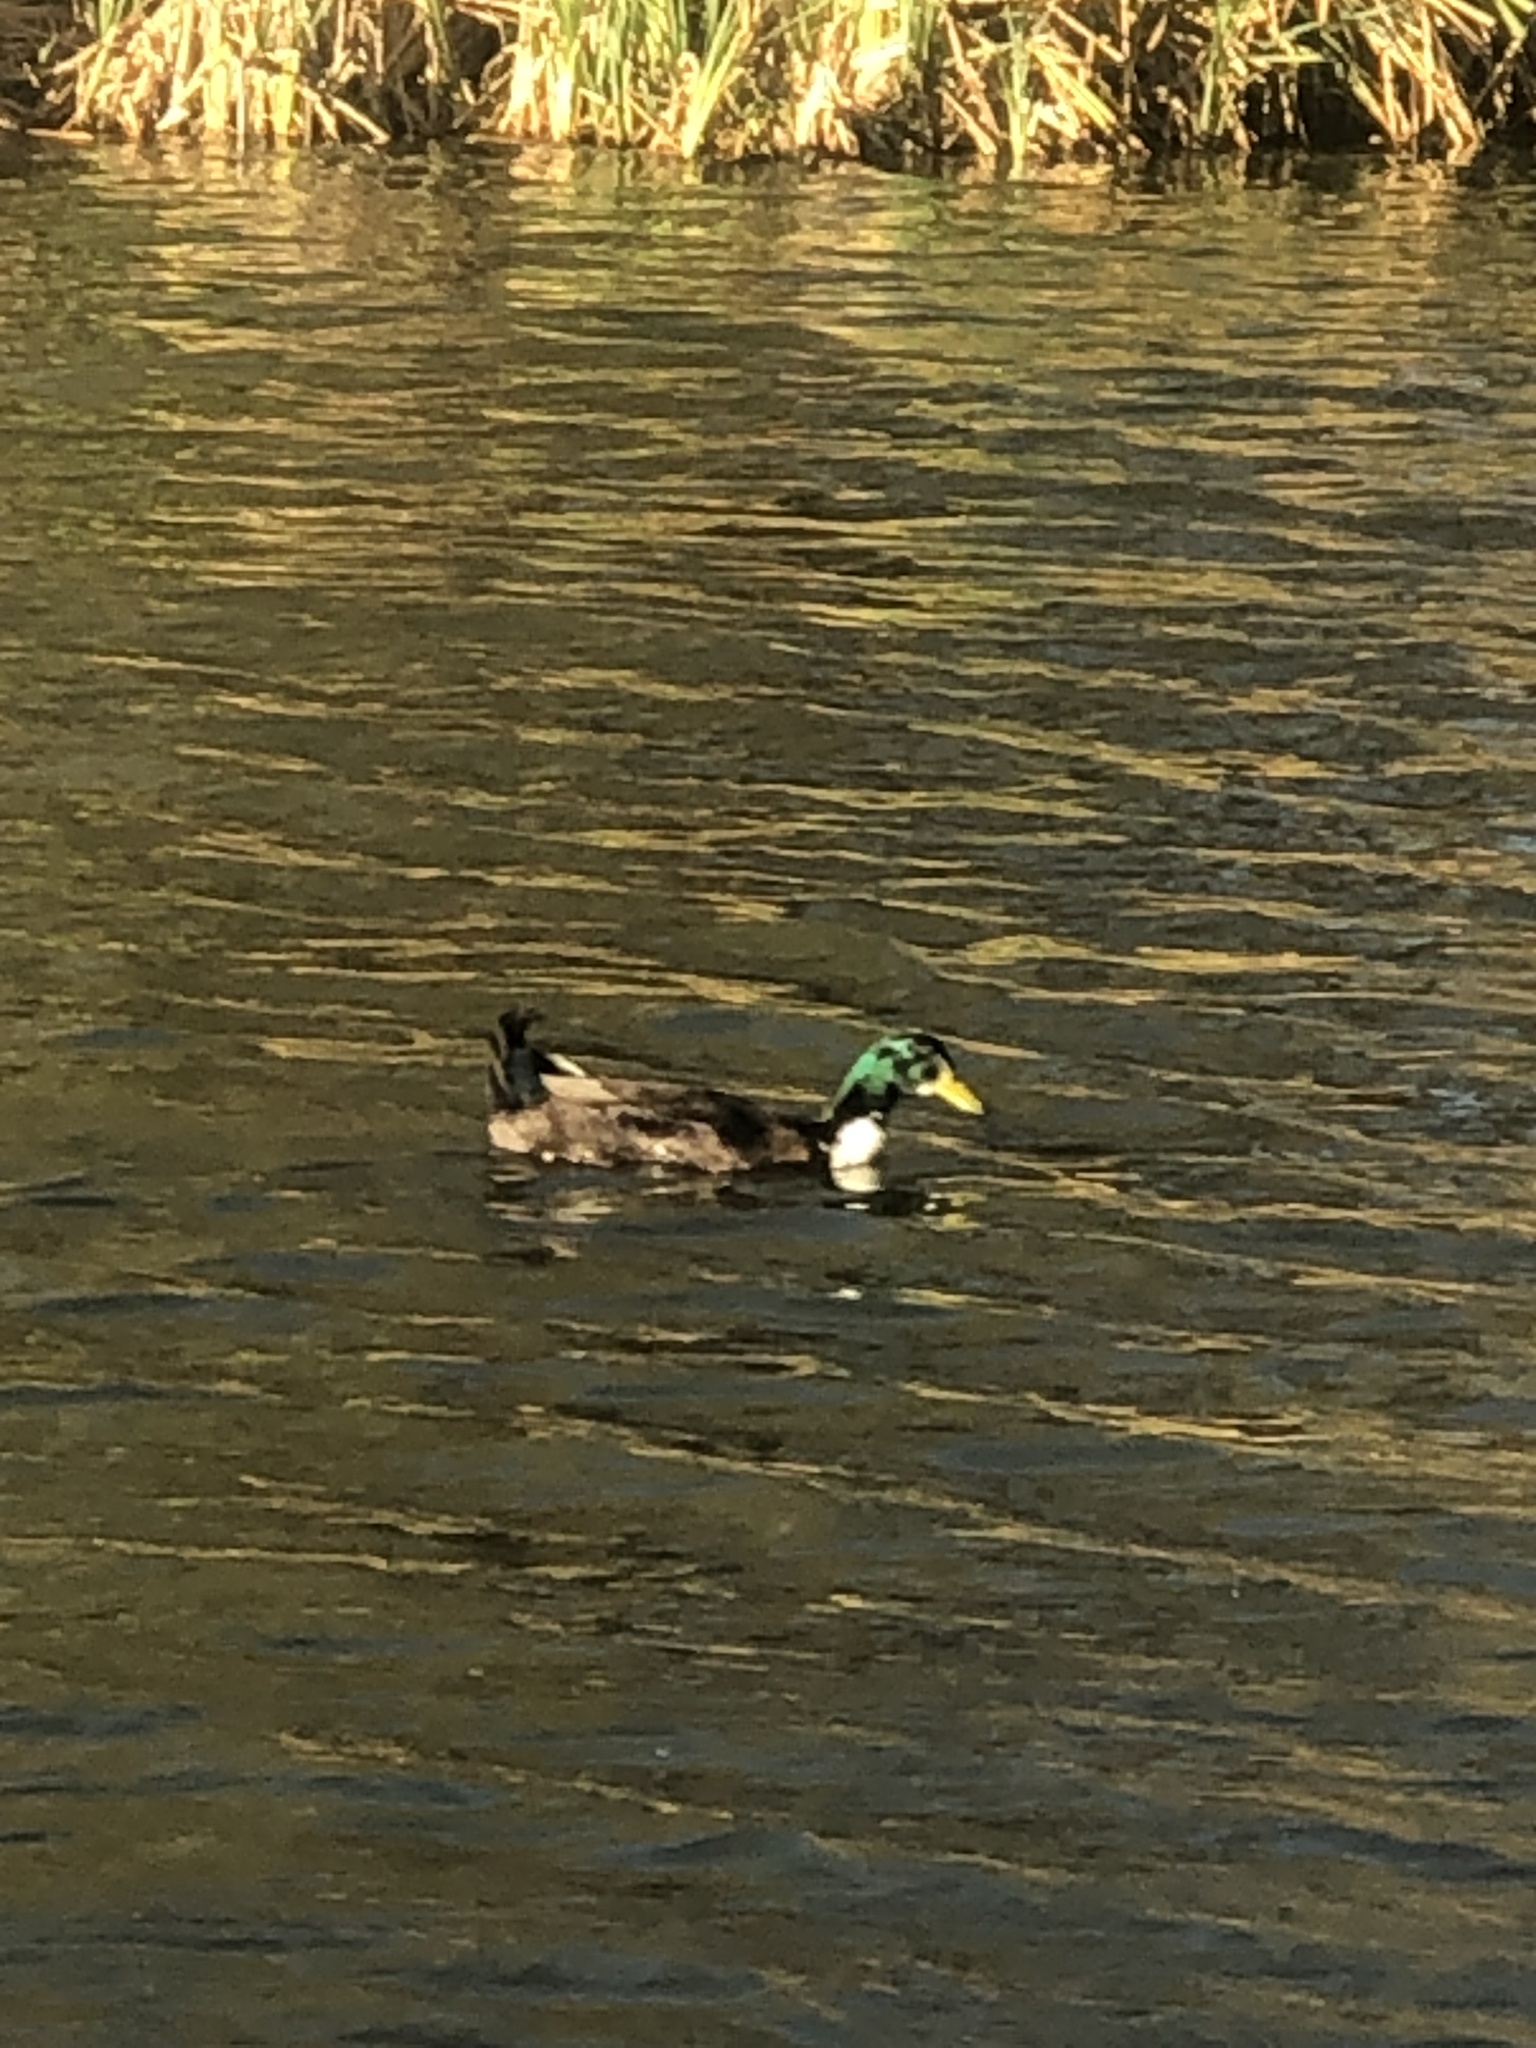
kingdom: Animalia
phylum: Chordata
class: Aves
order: Anseriformes
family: Anatidae
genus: Anas
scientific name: Anas platyrhynchos
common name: Mallard
